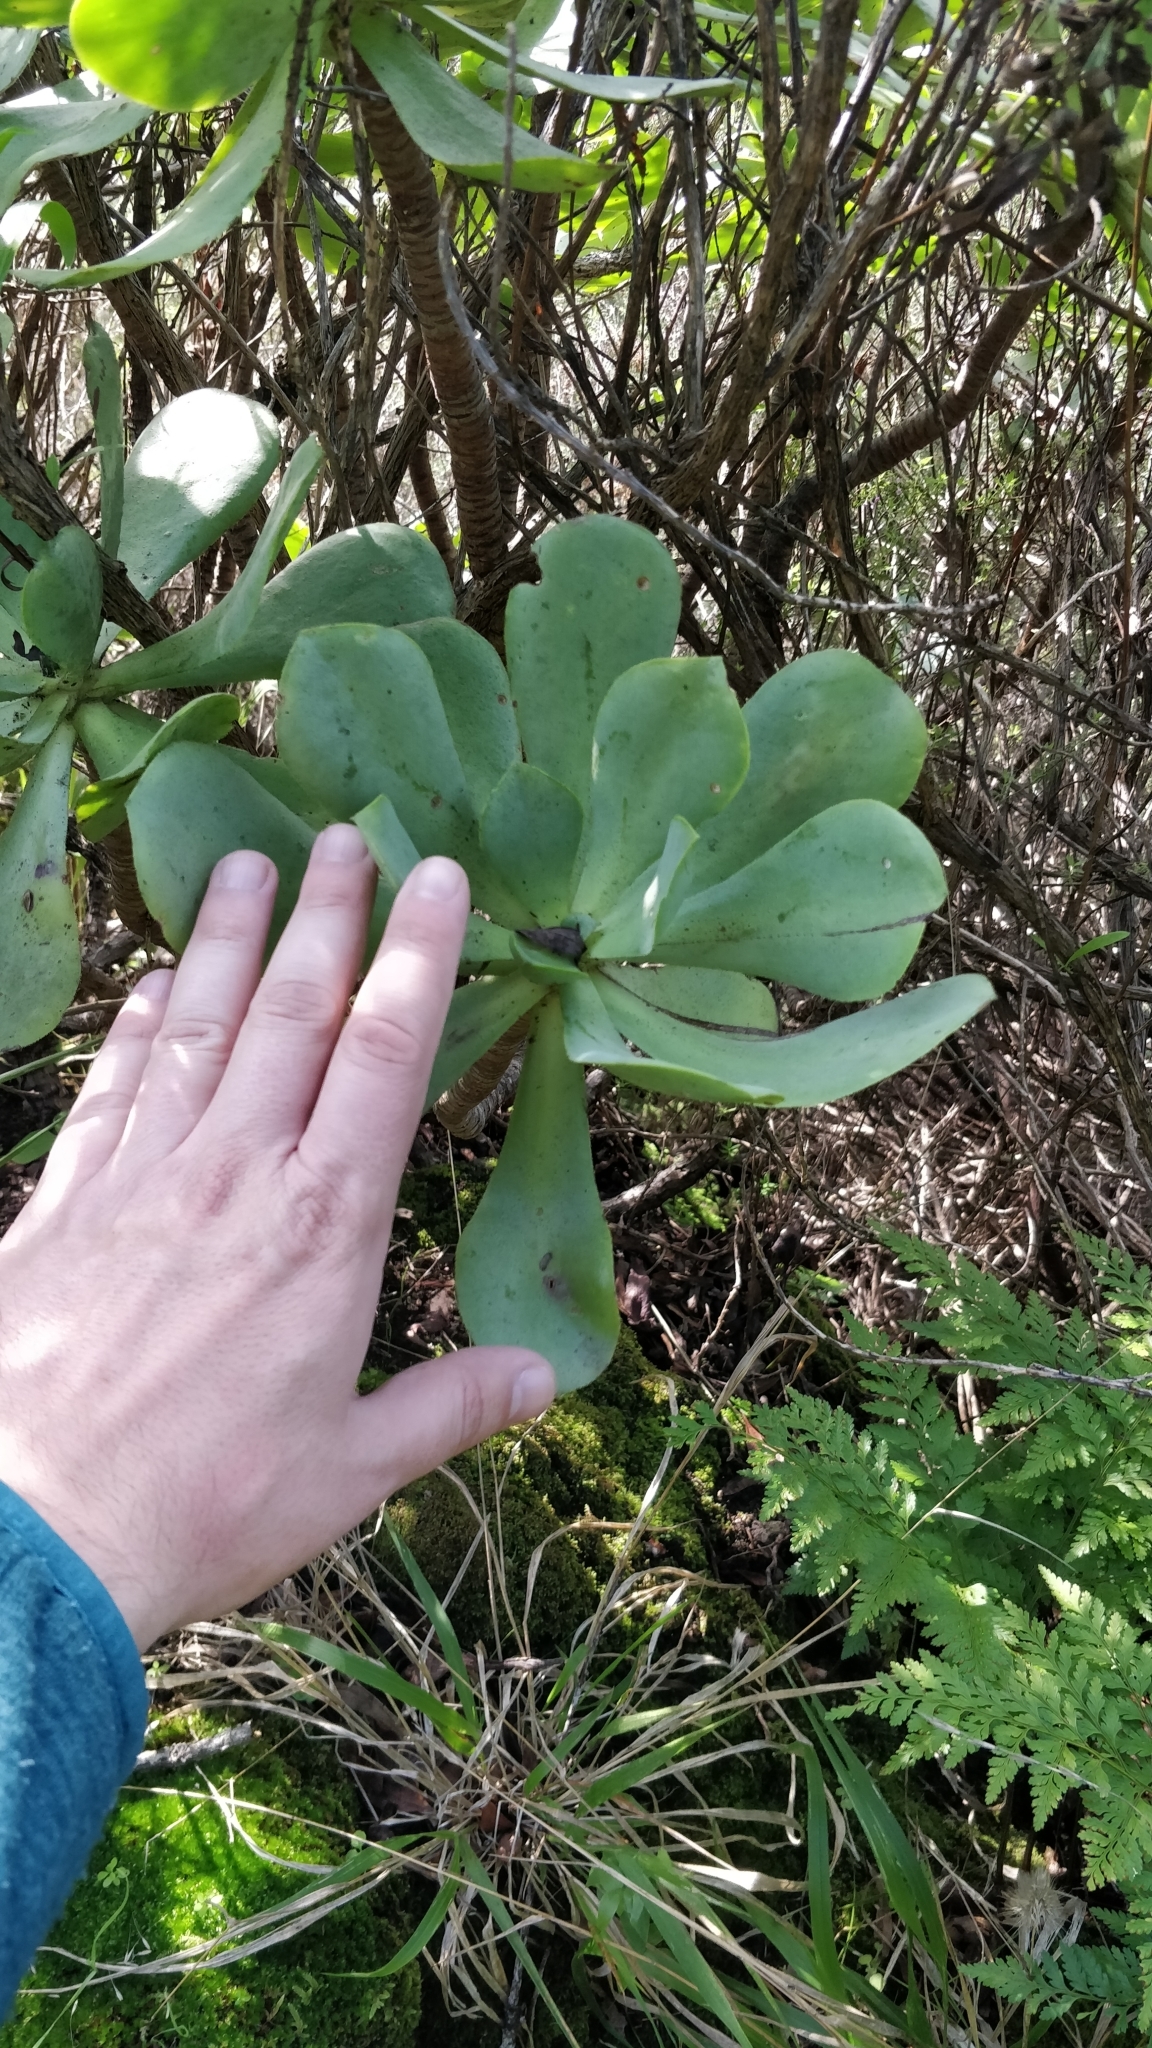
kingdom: Plantae
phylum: Tracheophyta
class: Magnoliopsida
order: Saxifragales
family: Crassulaceae
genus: Aeonium
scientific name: Aeonium glutinosum
